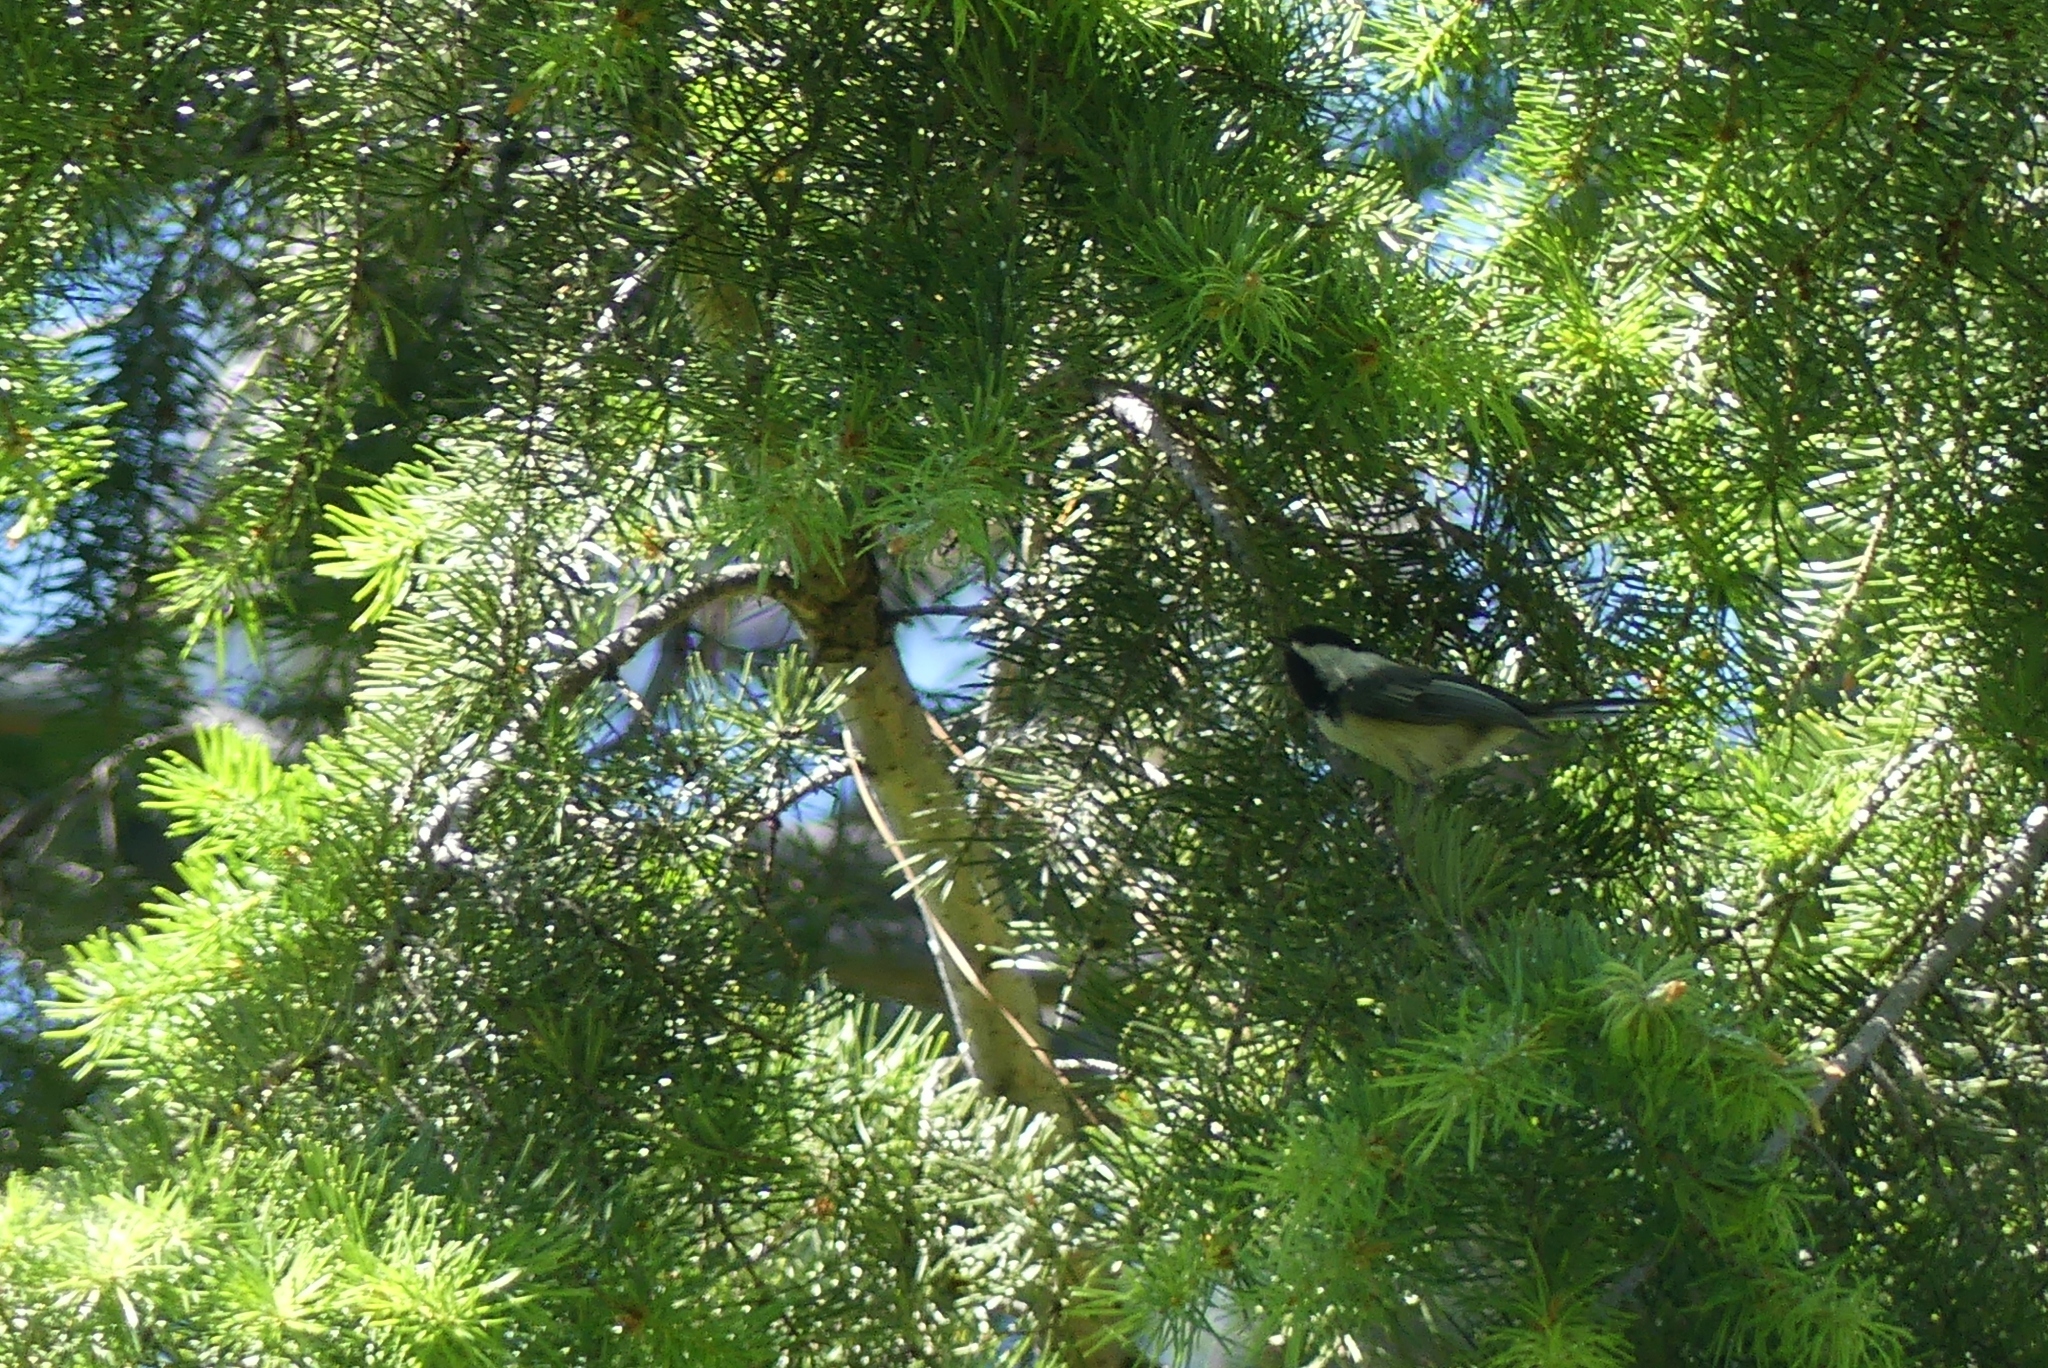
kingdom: Animalia
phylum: Chordata
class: Aves
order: Passeriformes
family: Paridae
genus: Poecile
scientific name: Poecile atricapillus
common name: Black-capped chickadee
